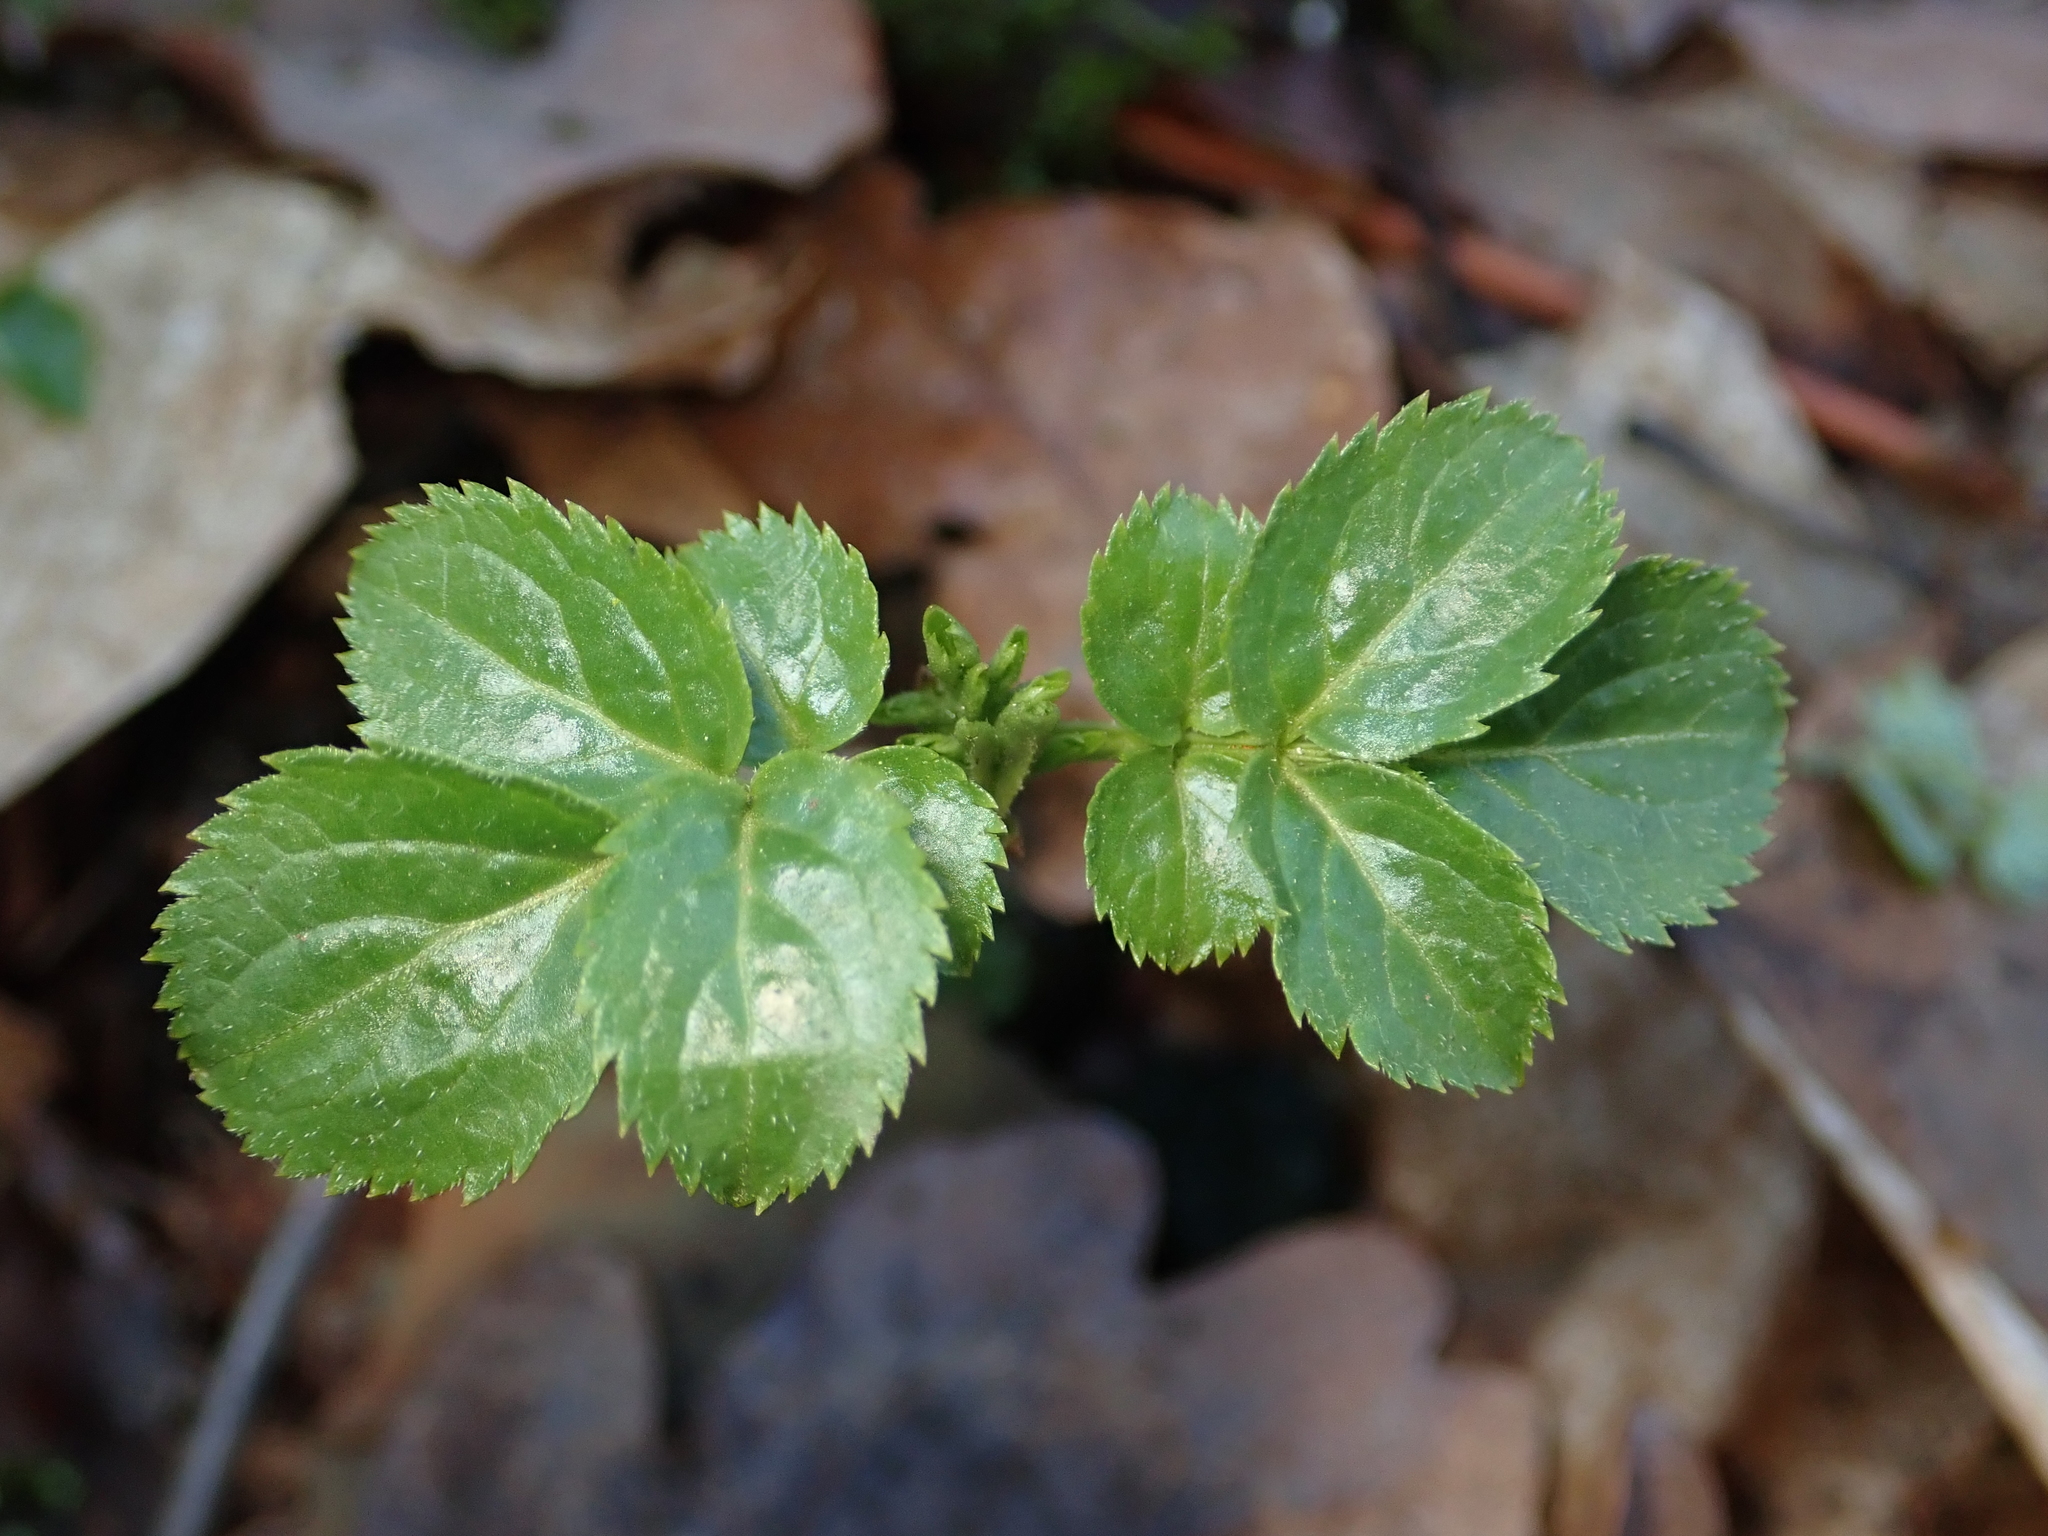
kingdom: Plantae
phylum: Tracheophyta
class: Magnoliopsida
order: Dipsacales
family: Viburnaceae
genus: Sambucus
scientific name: Sambucus nigra
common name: Elder
